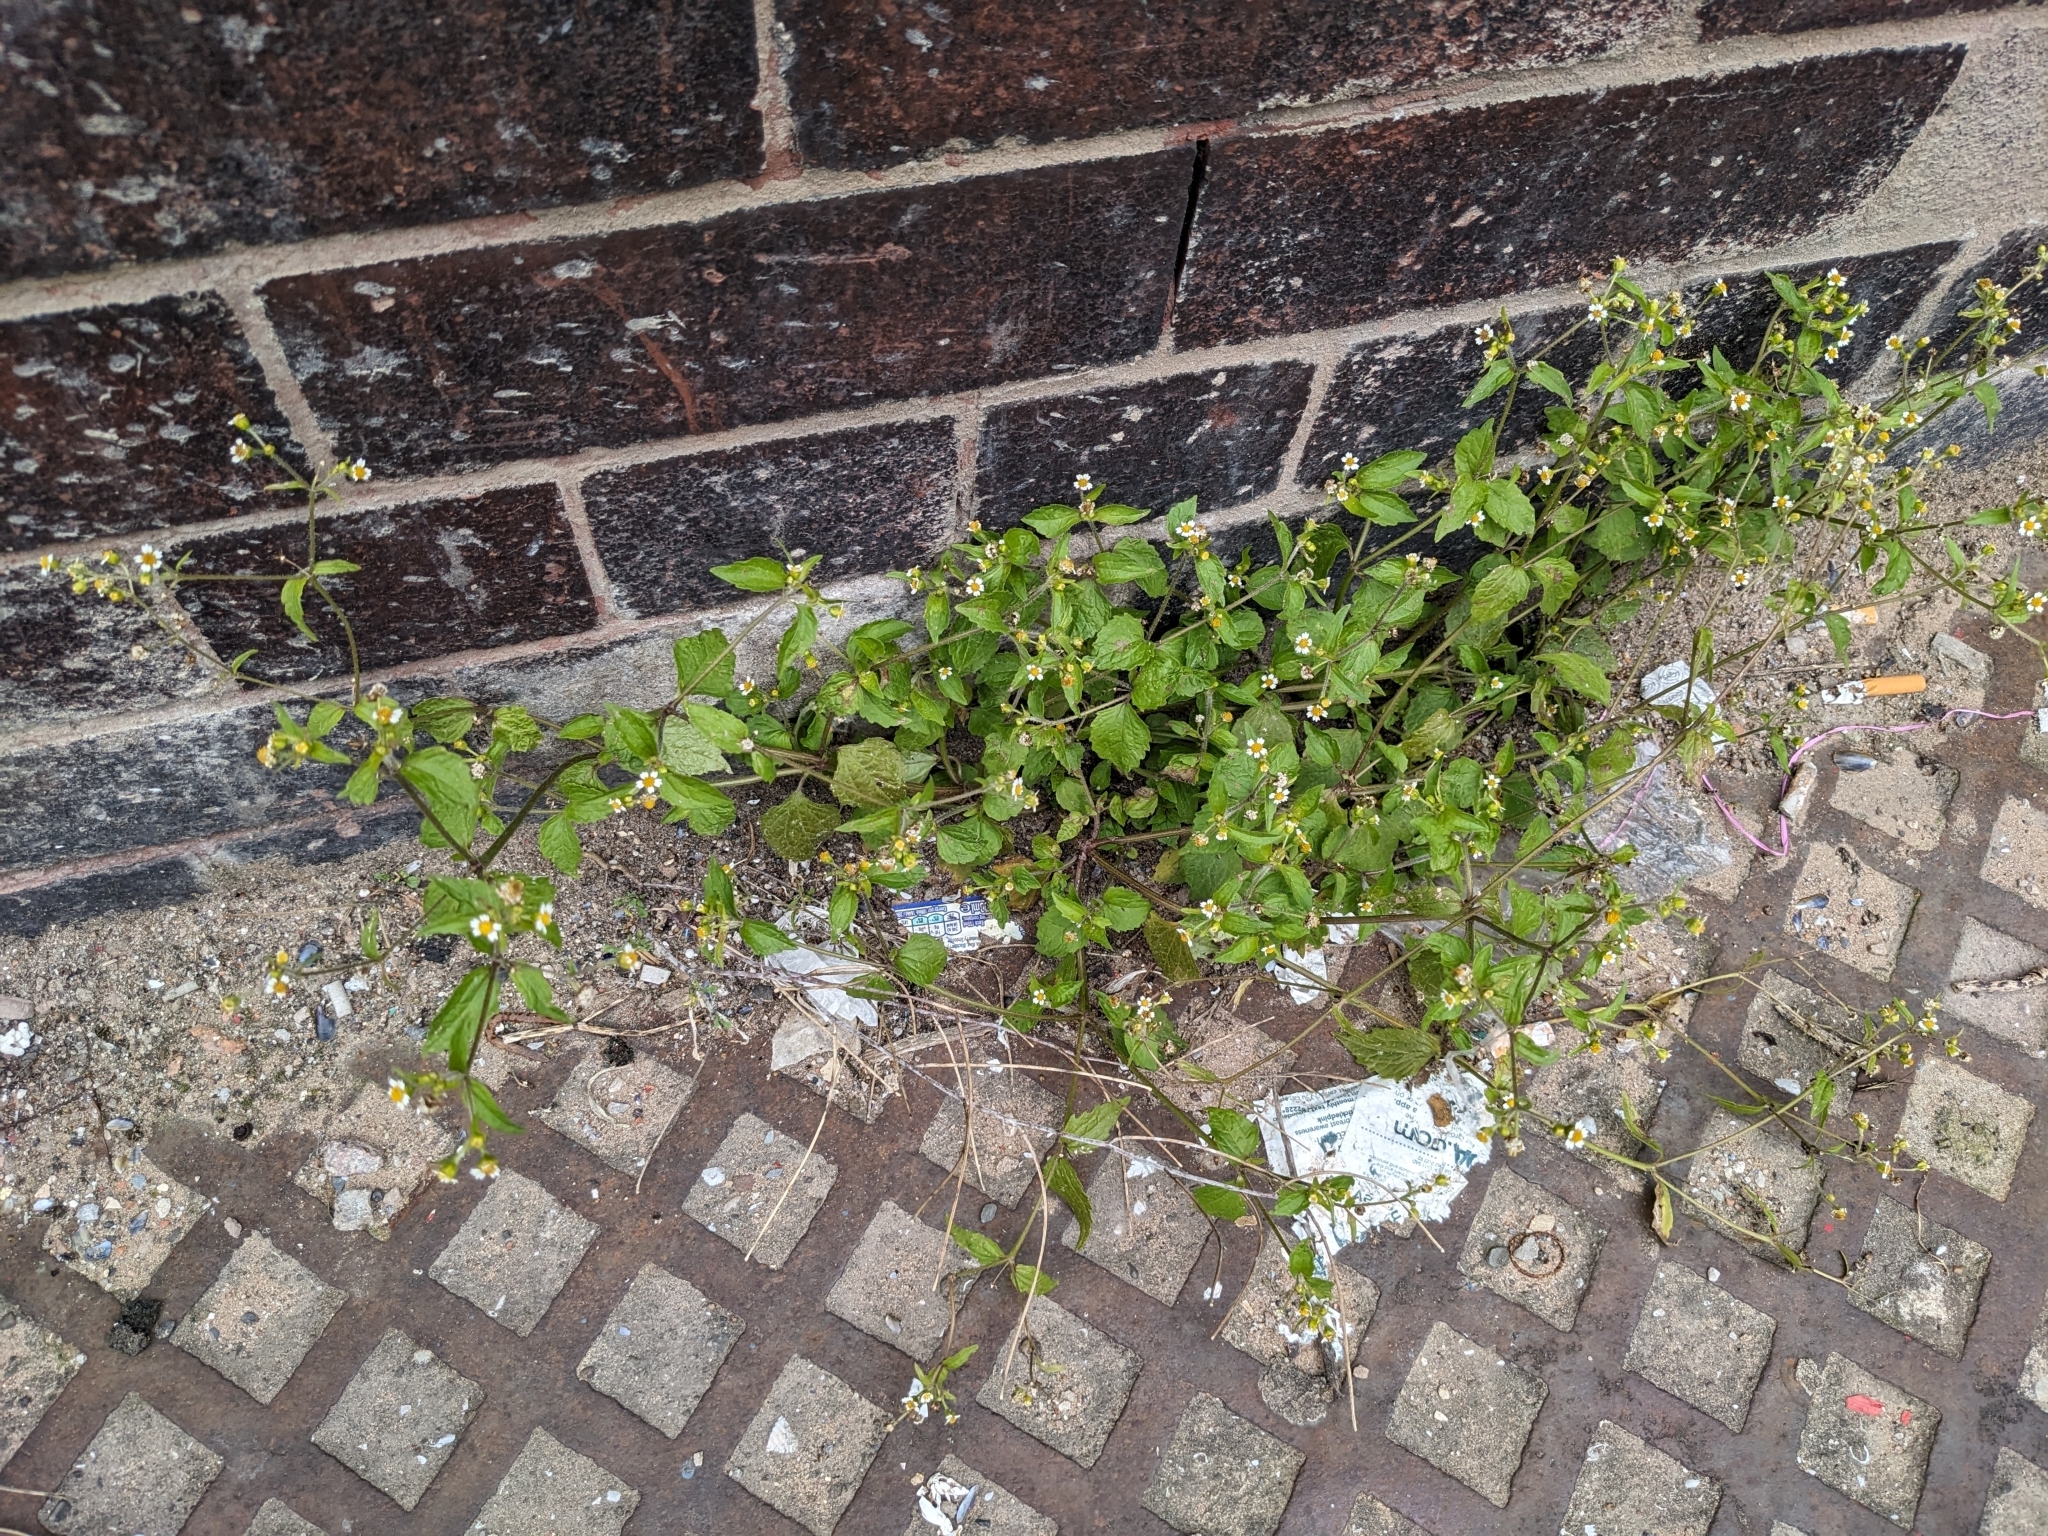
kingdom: Plantae
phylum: Tracheophyta
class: Magnoliopsida
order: Asterales
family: Asteraceae
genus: Galinsoga
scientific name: Galinsoga quadriradiata
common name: Shaggy soldier
